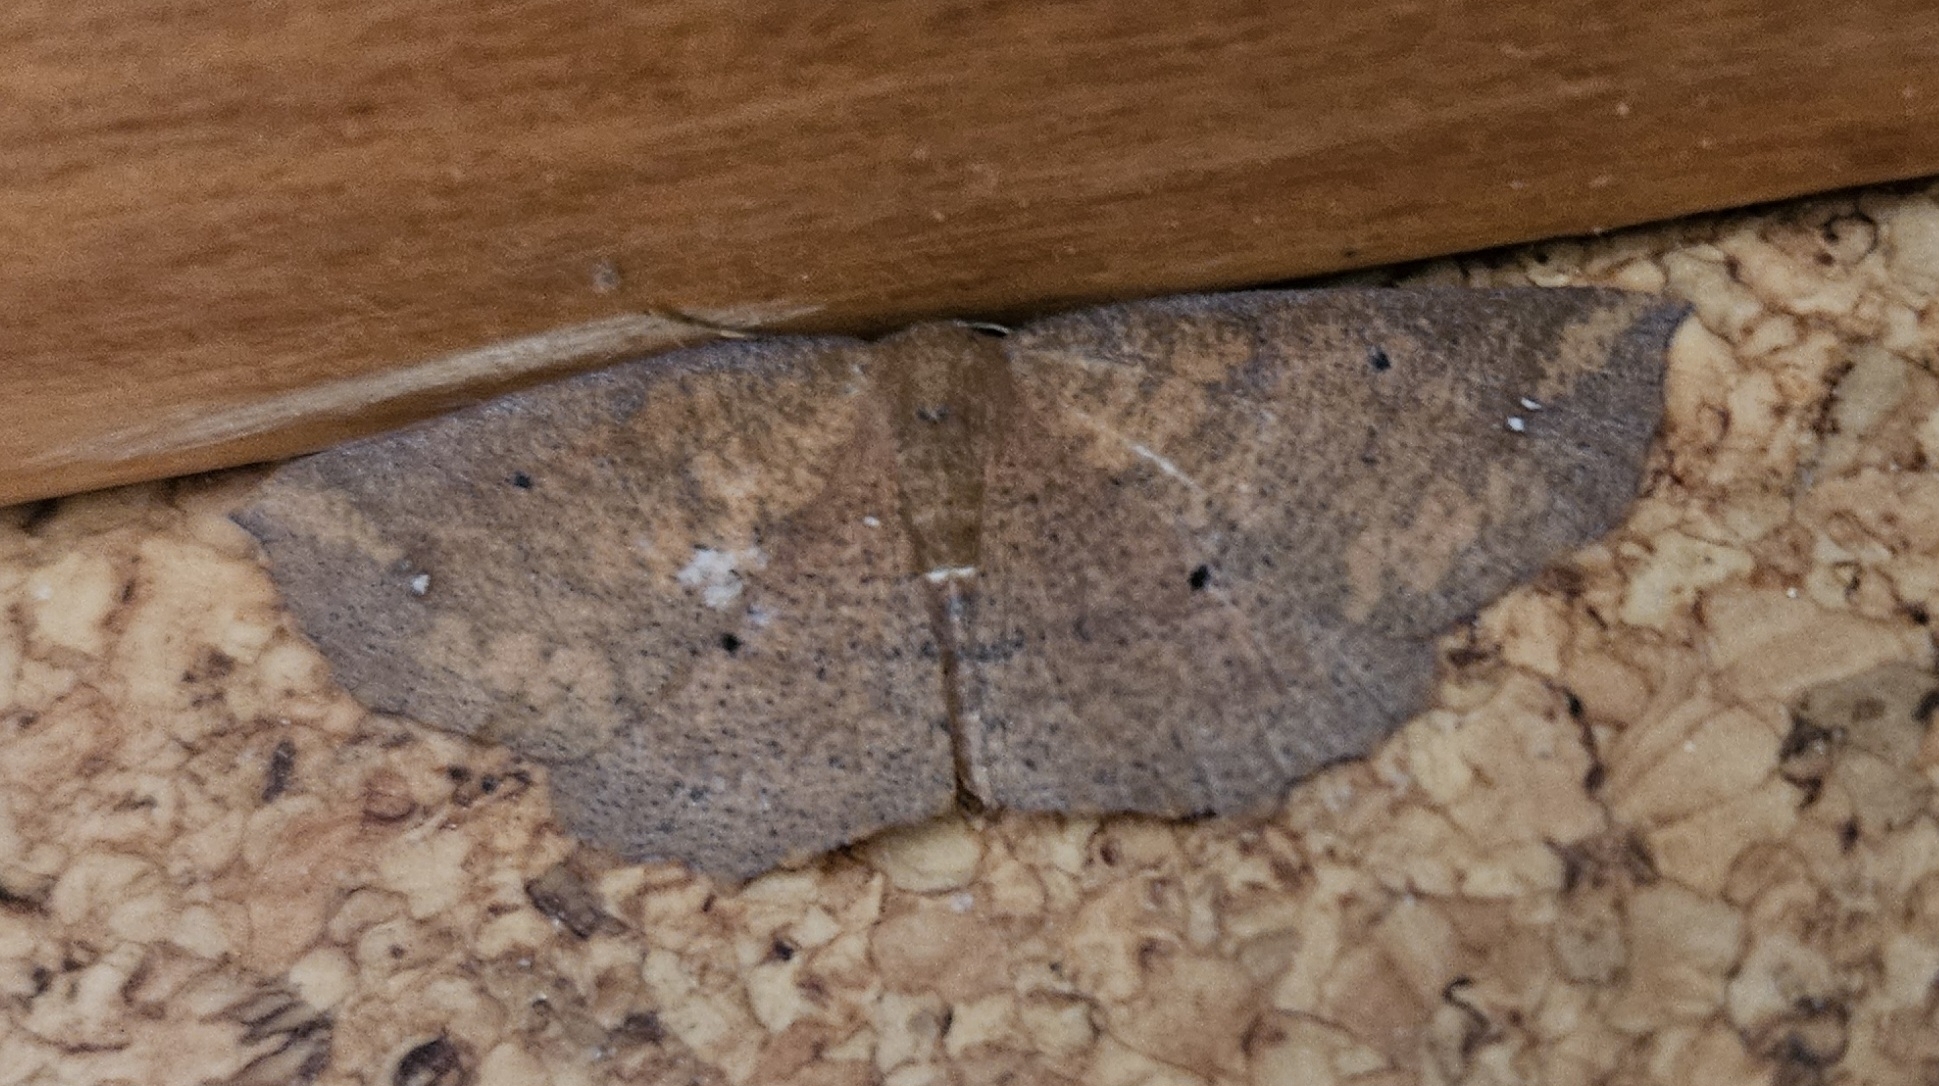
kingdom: Animalia
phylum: Arthropoda
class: Insecta
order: Lepidoptera
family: Geometridae
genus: Xyridacma
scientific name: Xyridacma ustaria
